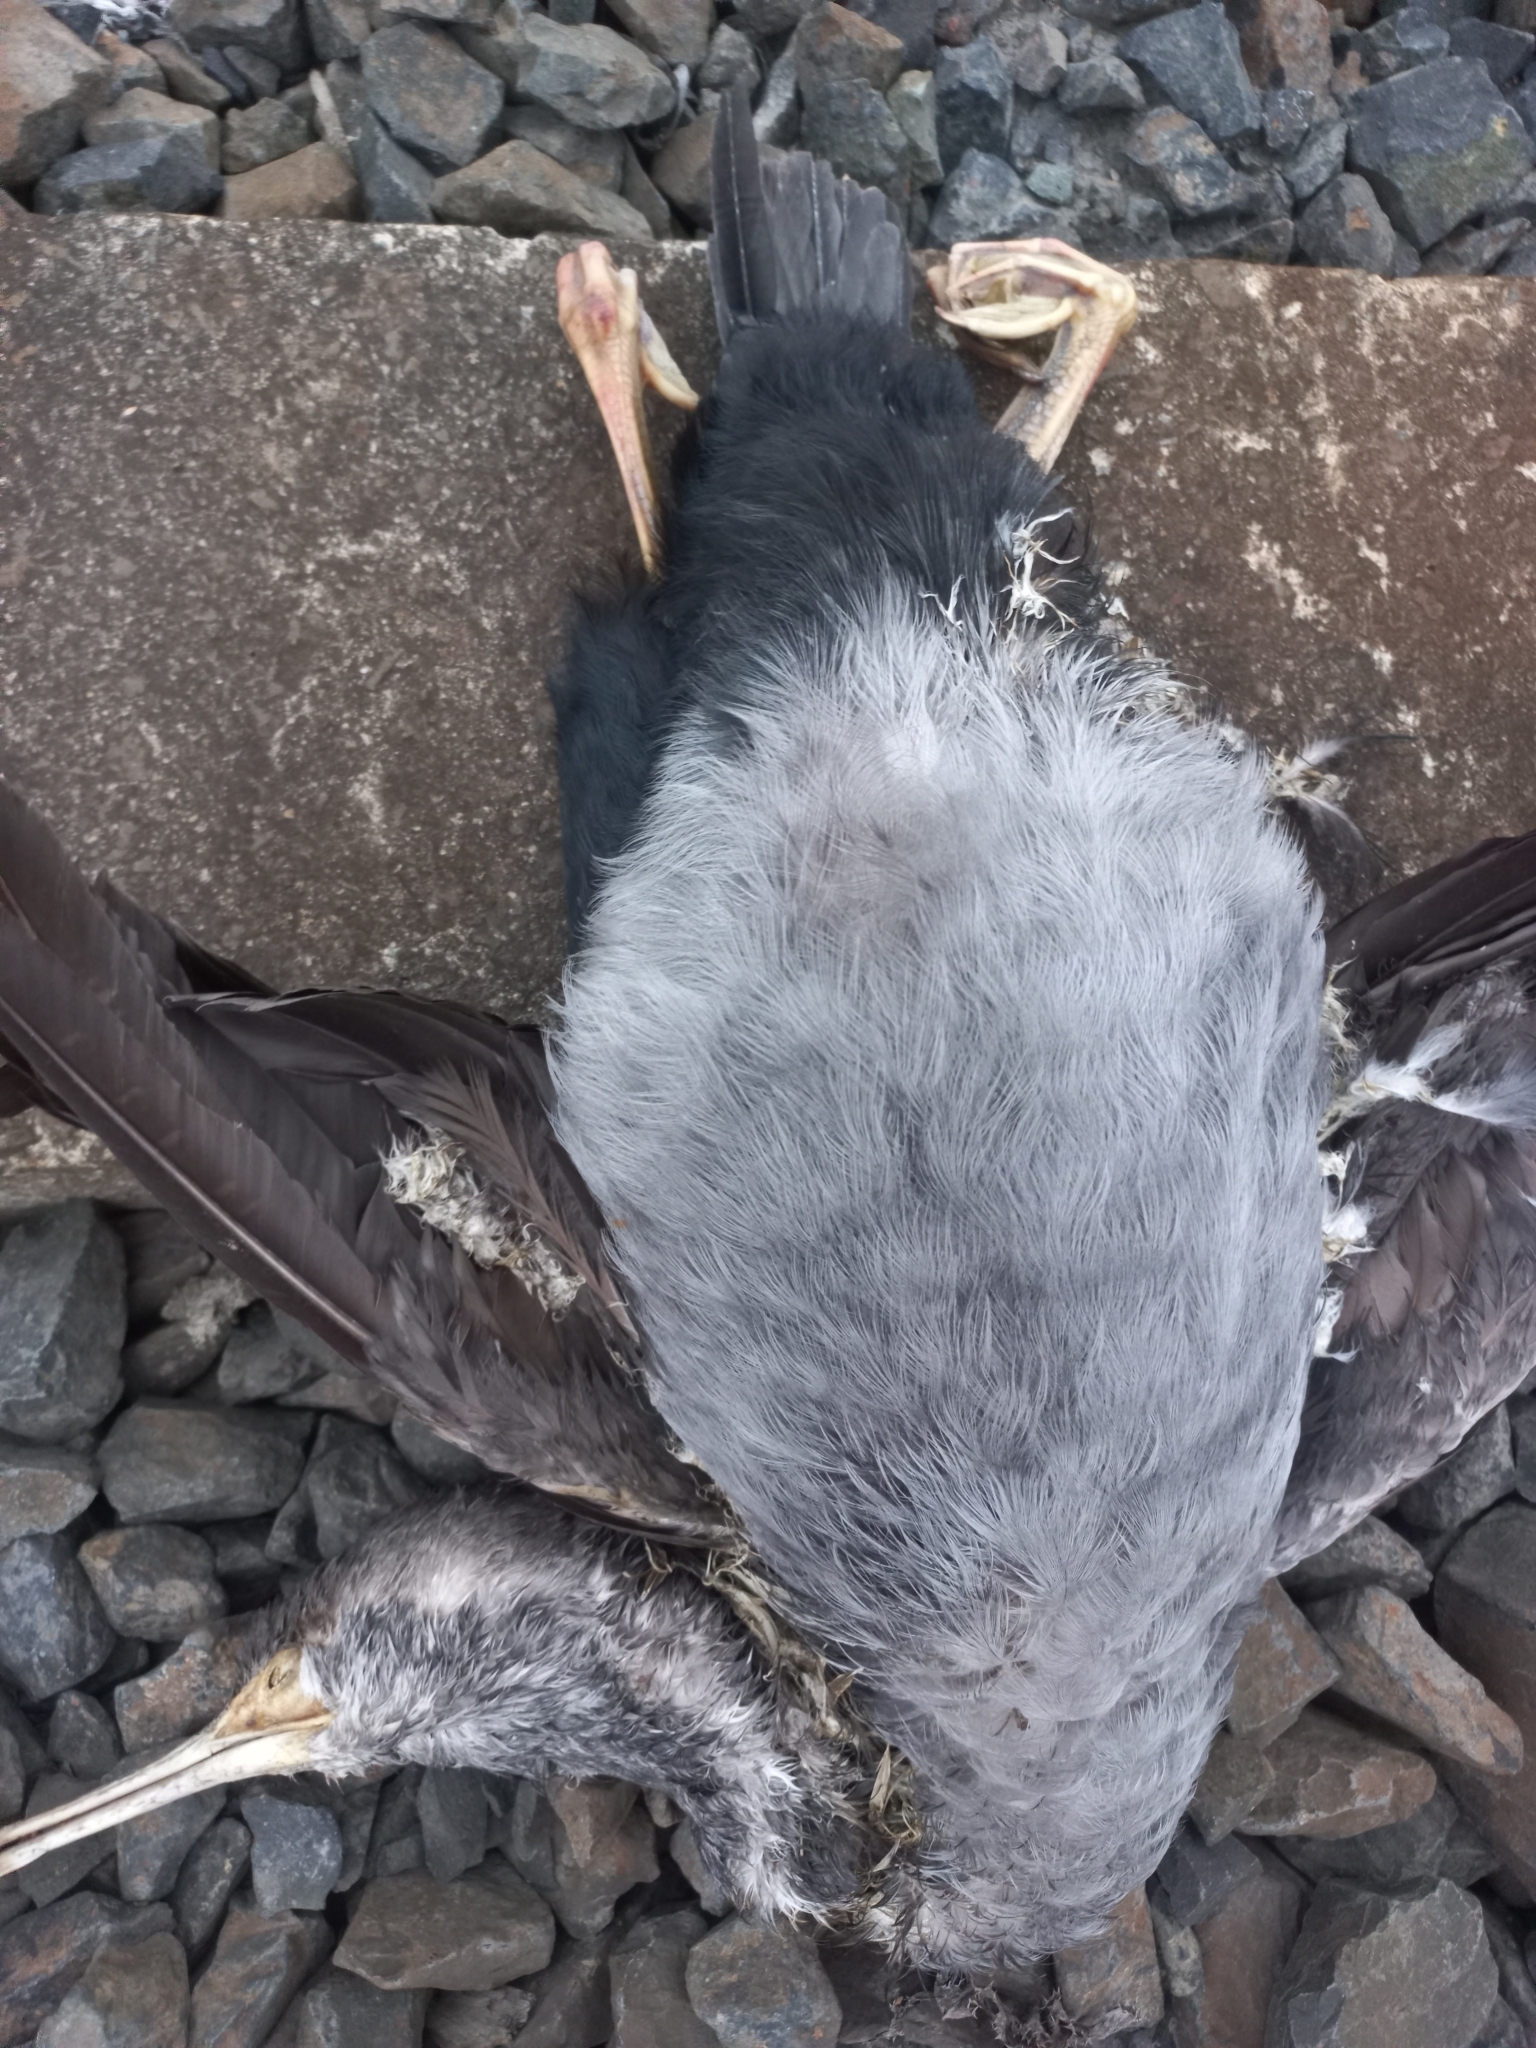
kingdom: Animalia
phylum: Chordata
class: Aves
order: Suliformes
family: Phalacrocoracidae
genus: Phalacrocorax
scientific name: Phalacrocorax punctatus
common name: Spotted shag
